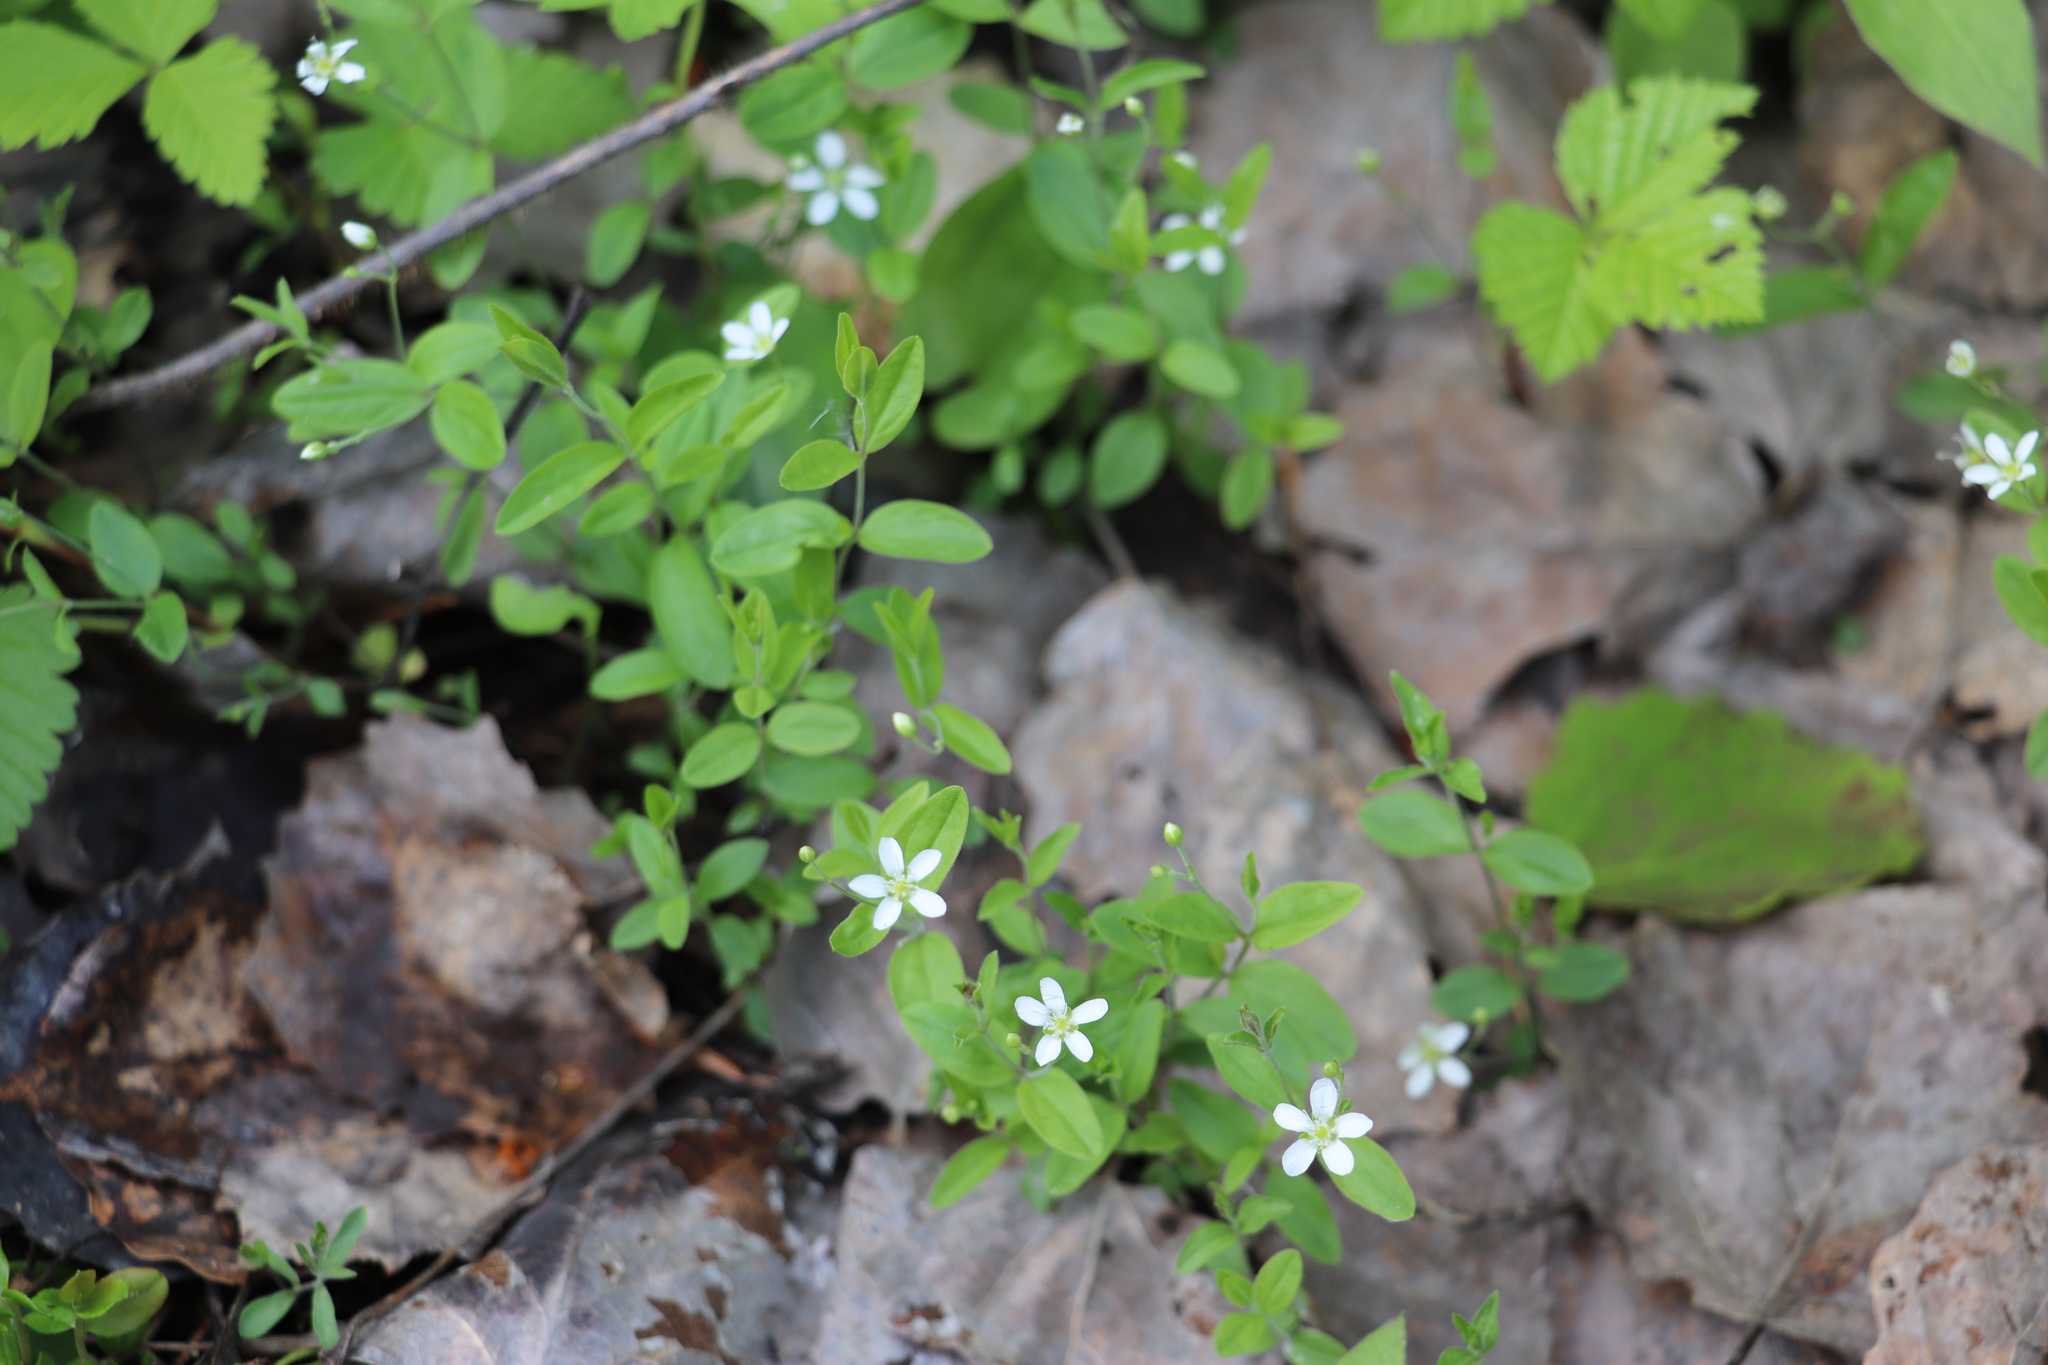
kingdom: Plantae
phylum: Tracheophyta
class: Magnoliopsida
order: Caryophyllales
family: Caryophyllaceae
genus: Moehringia
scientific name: Moehringia lateriflora
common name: Blunt-leaved sandwort
